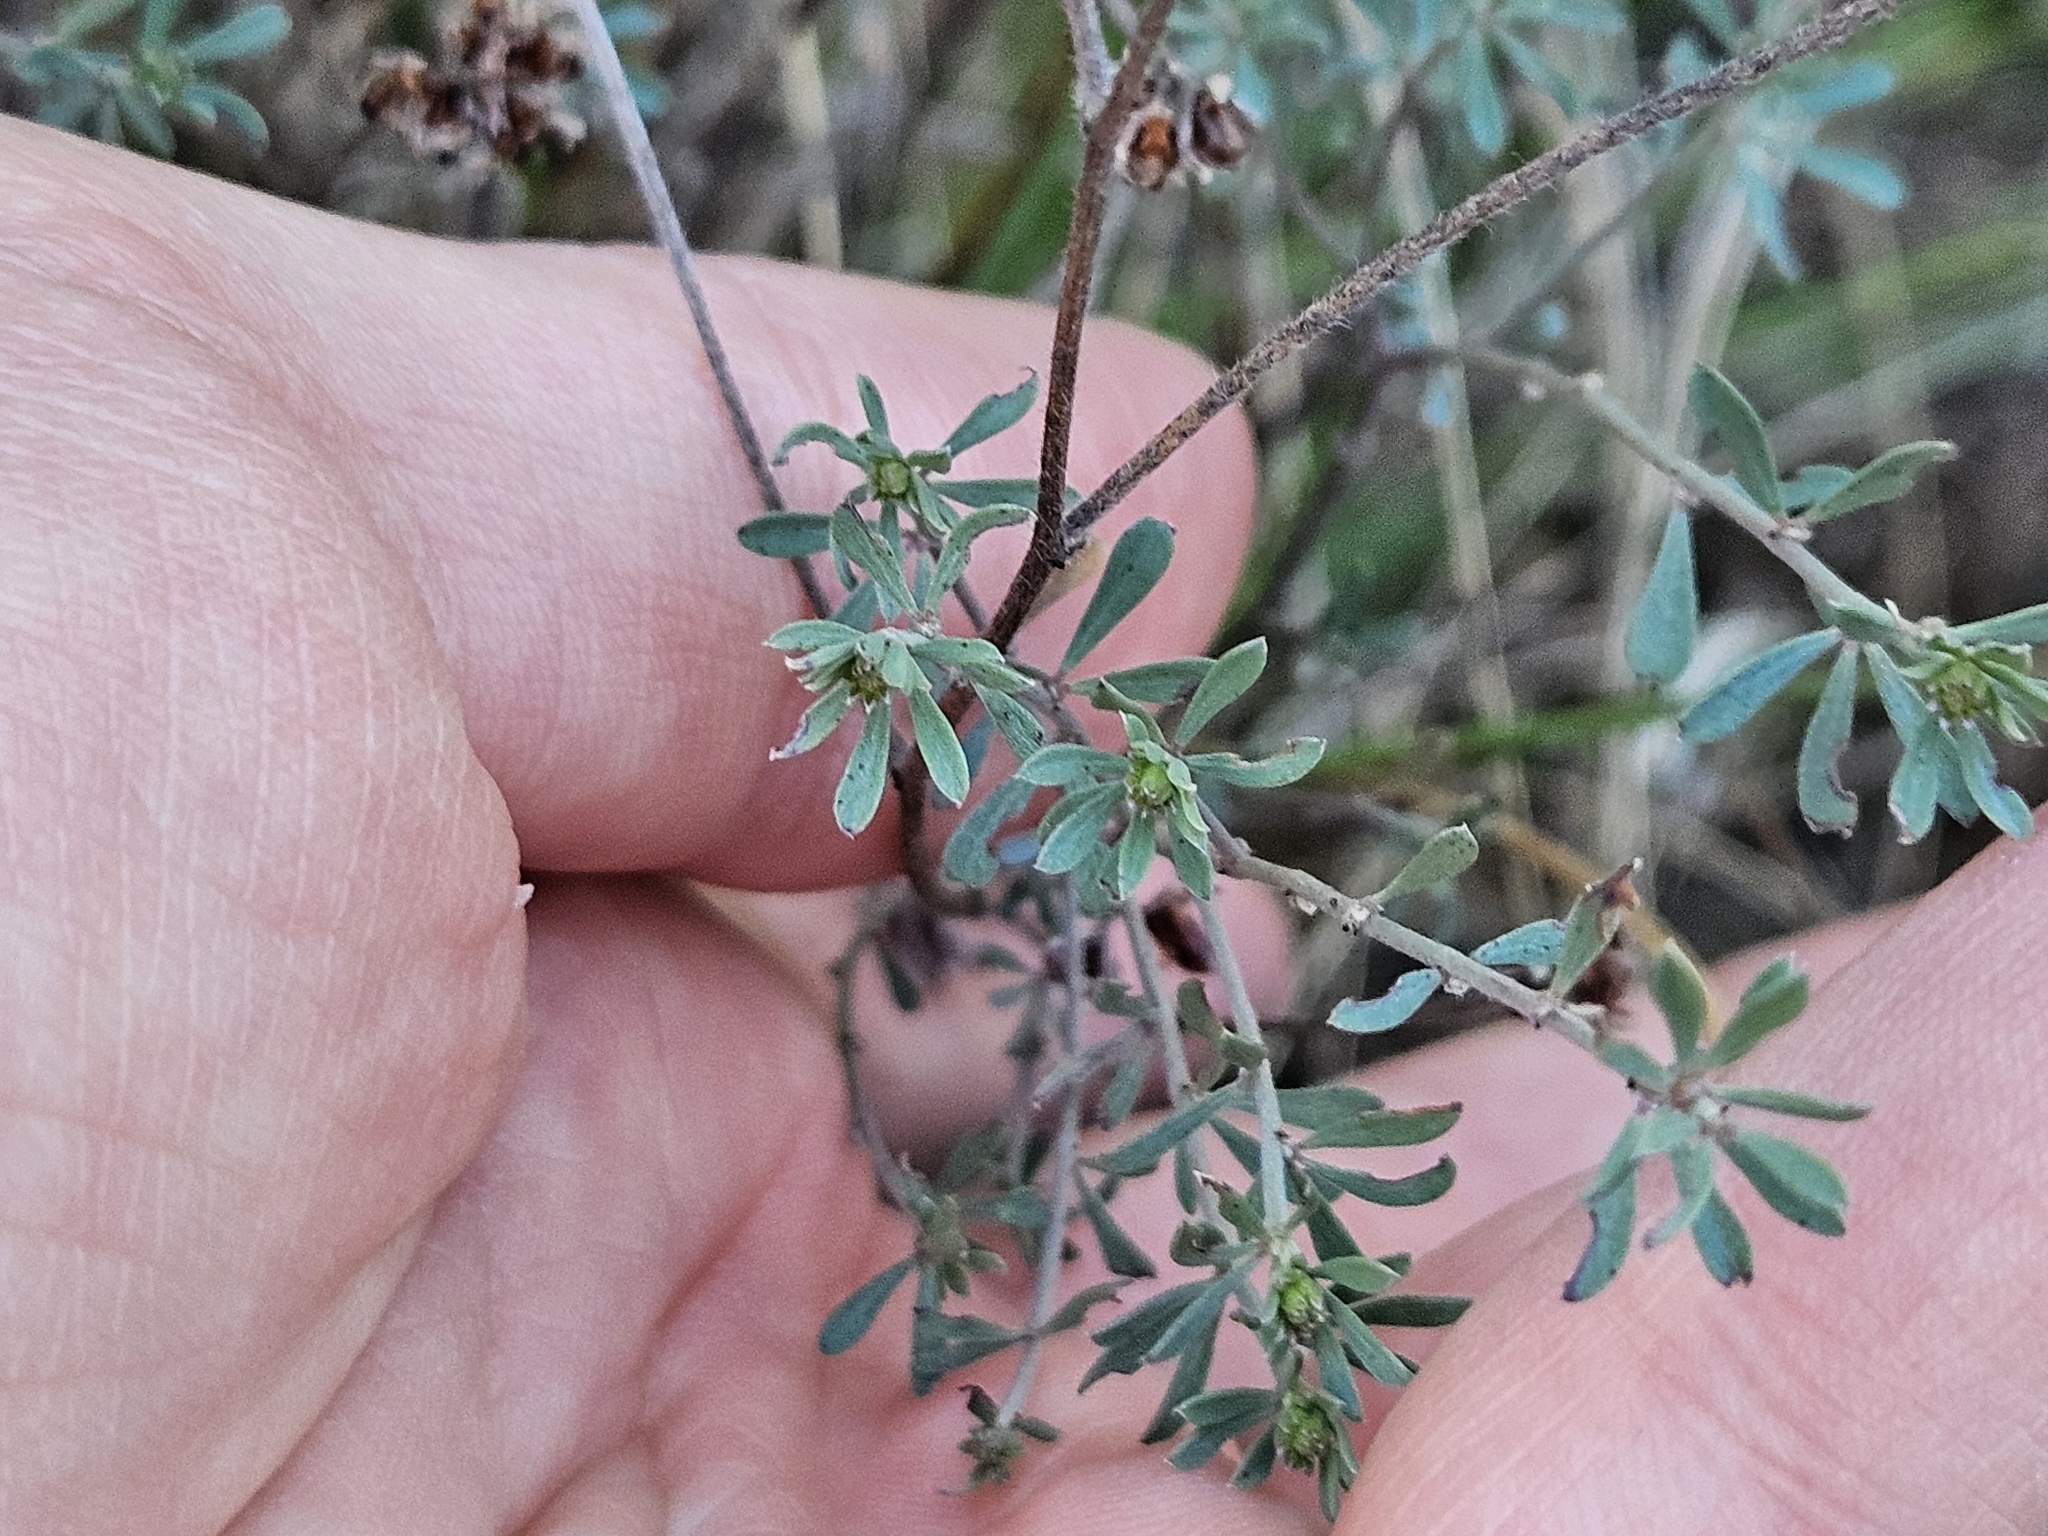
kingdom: Plantae
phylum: Tracheophyta
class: Magnoliopsida
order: Fabales
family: Fabaceae
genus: Lotus
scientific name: Lotus dorycnium
